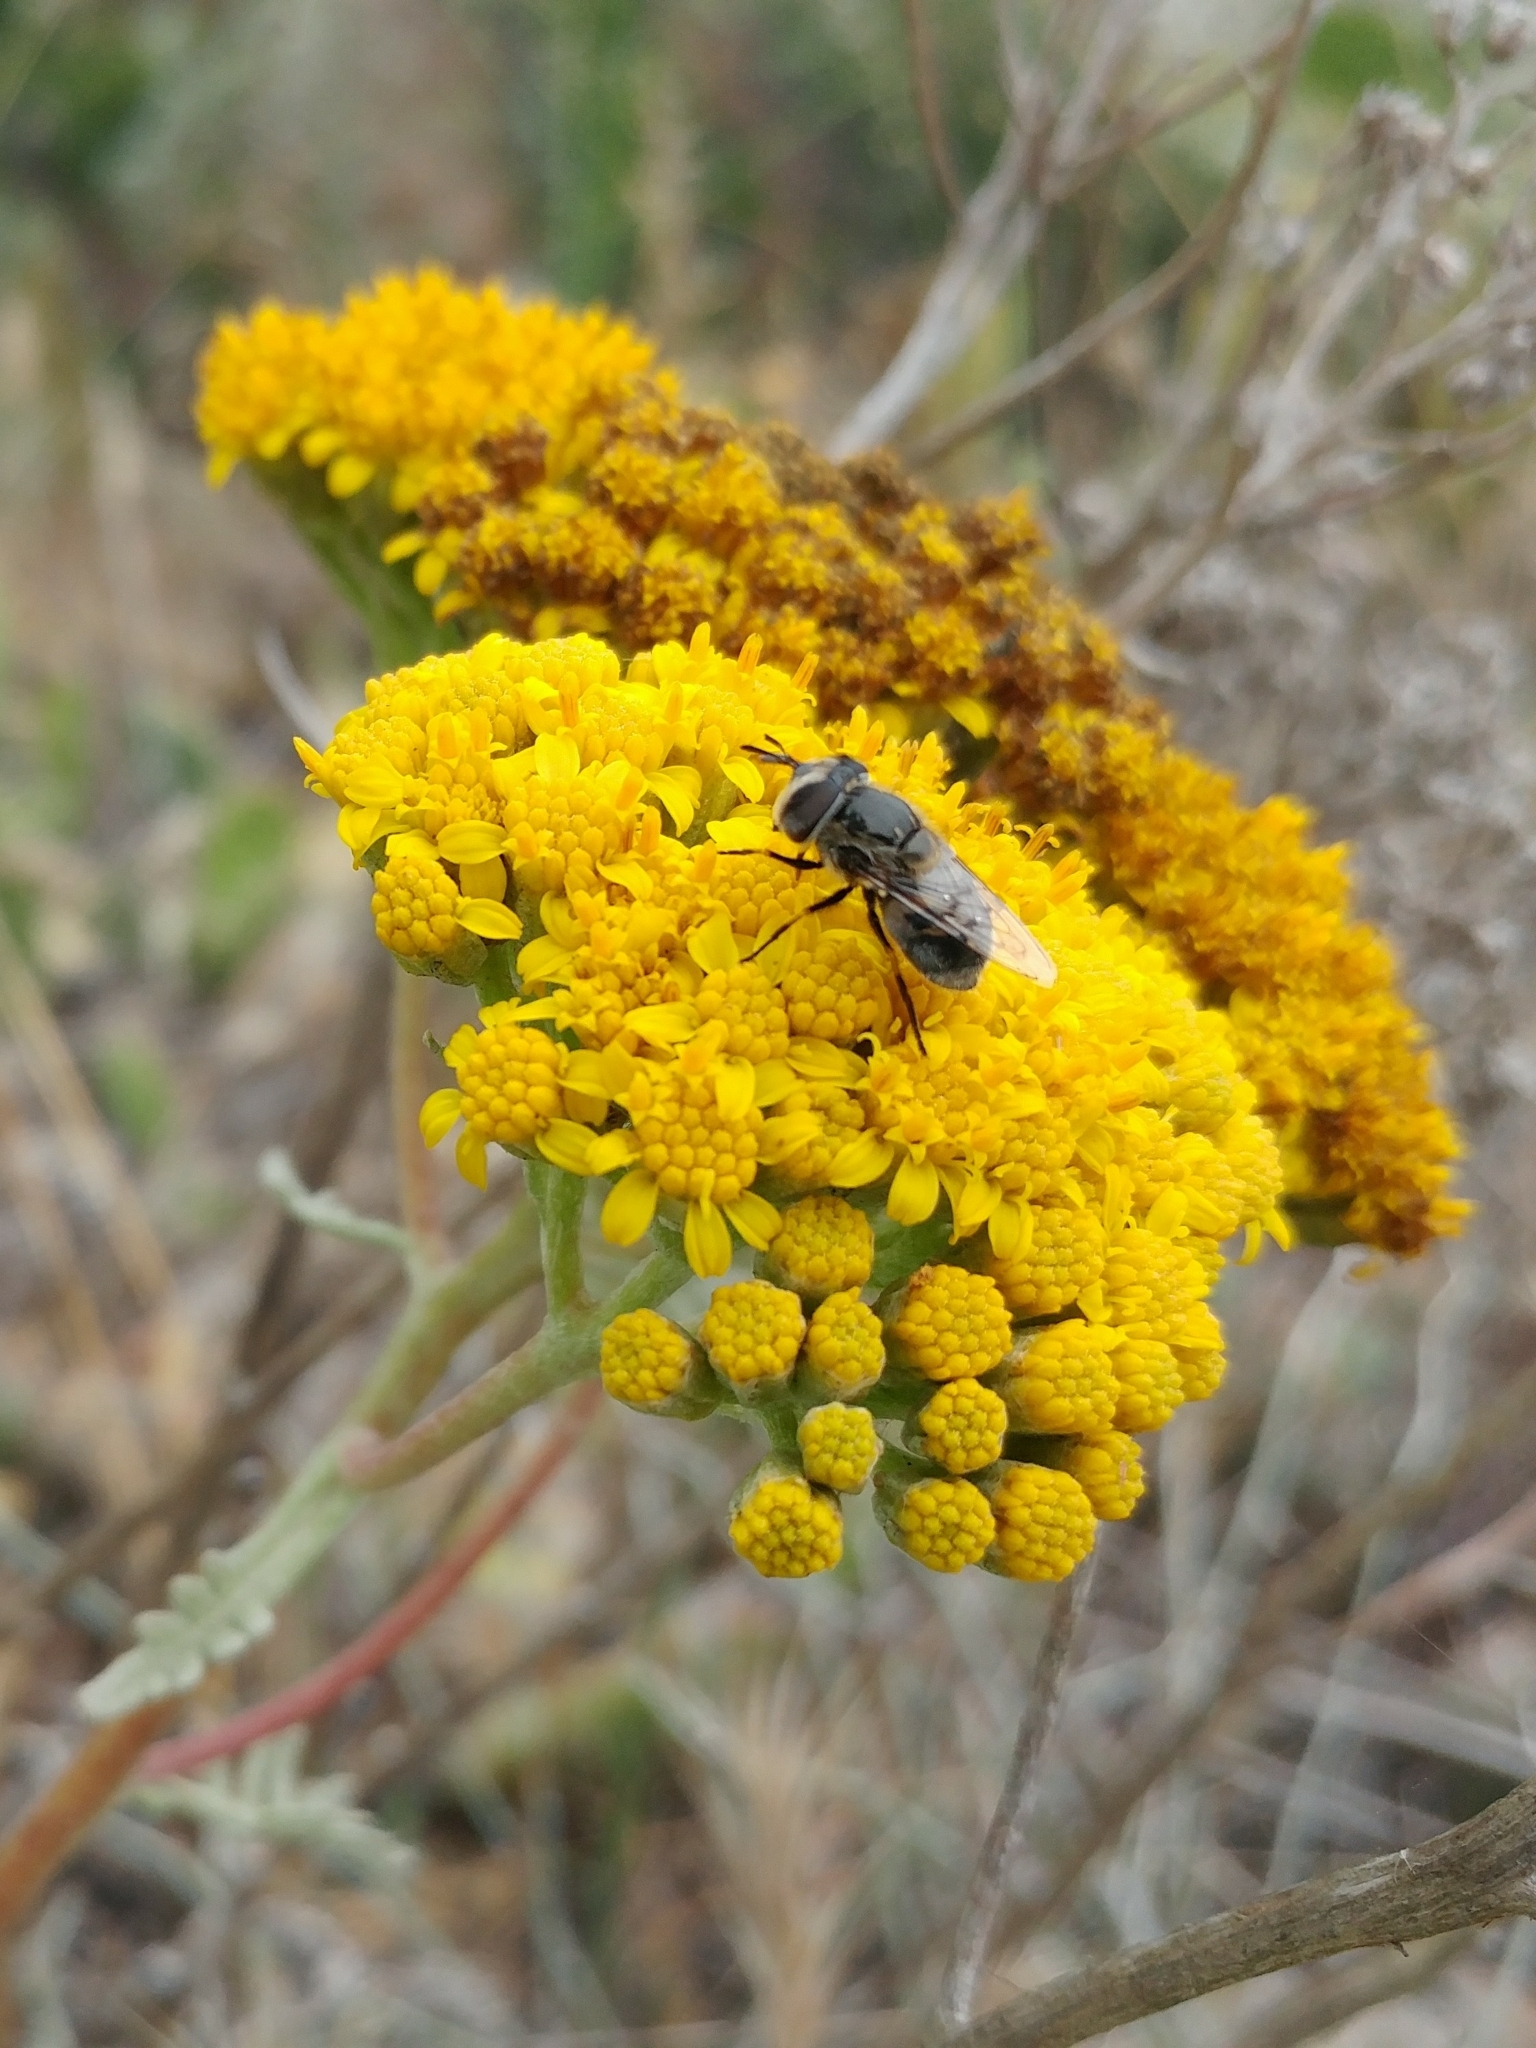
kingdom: Animalia
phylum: Arthropoda
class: Insecta
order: Diptera
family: Syrphidae
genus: Copestylum
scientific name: Copestylum lentum
